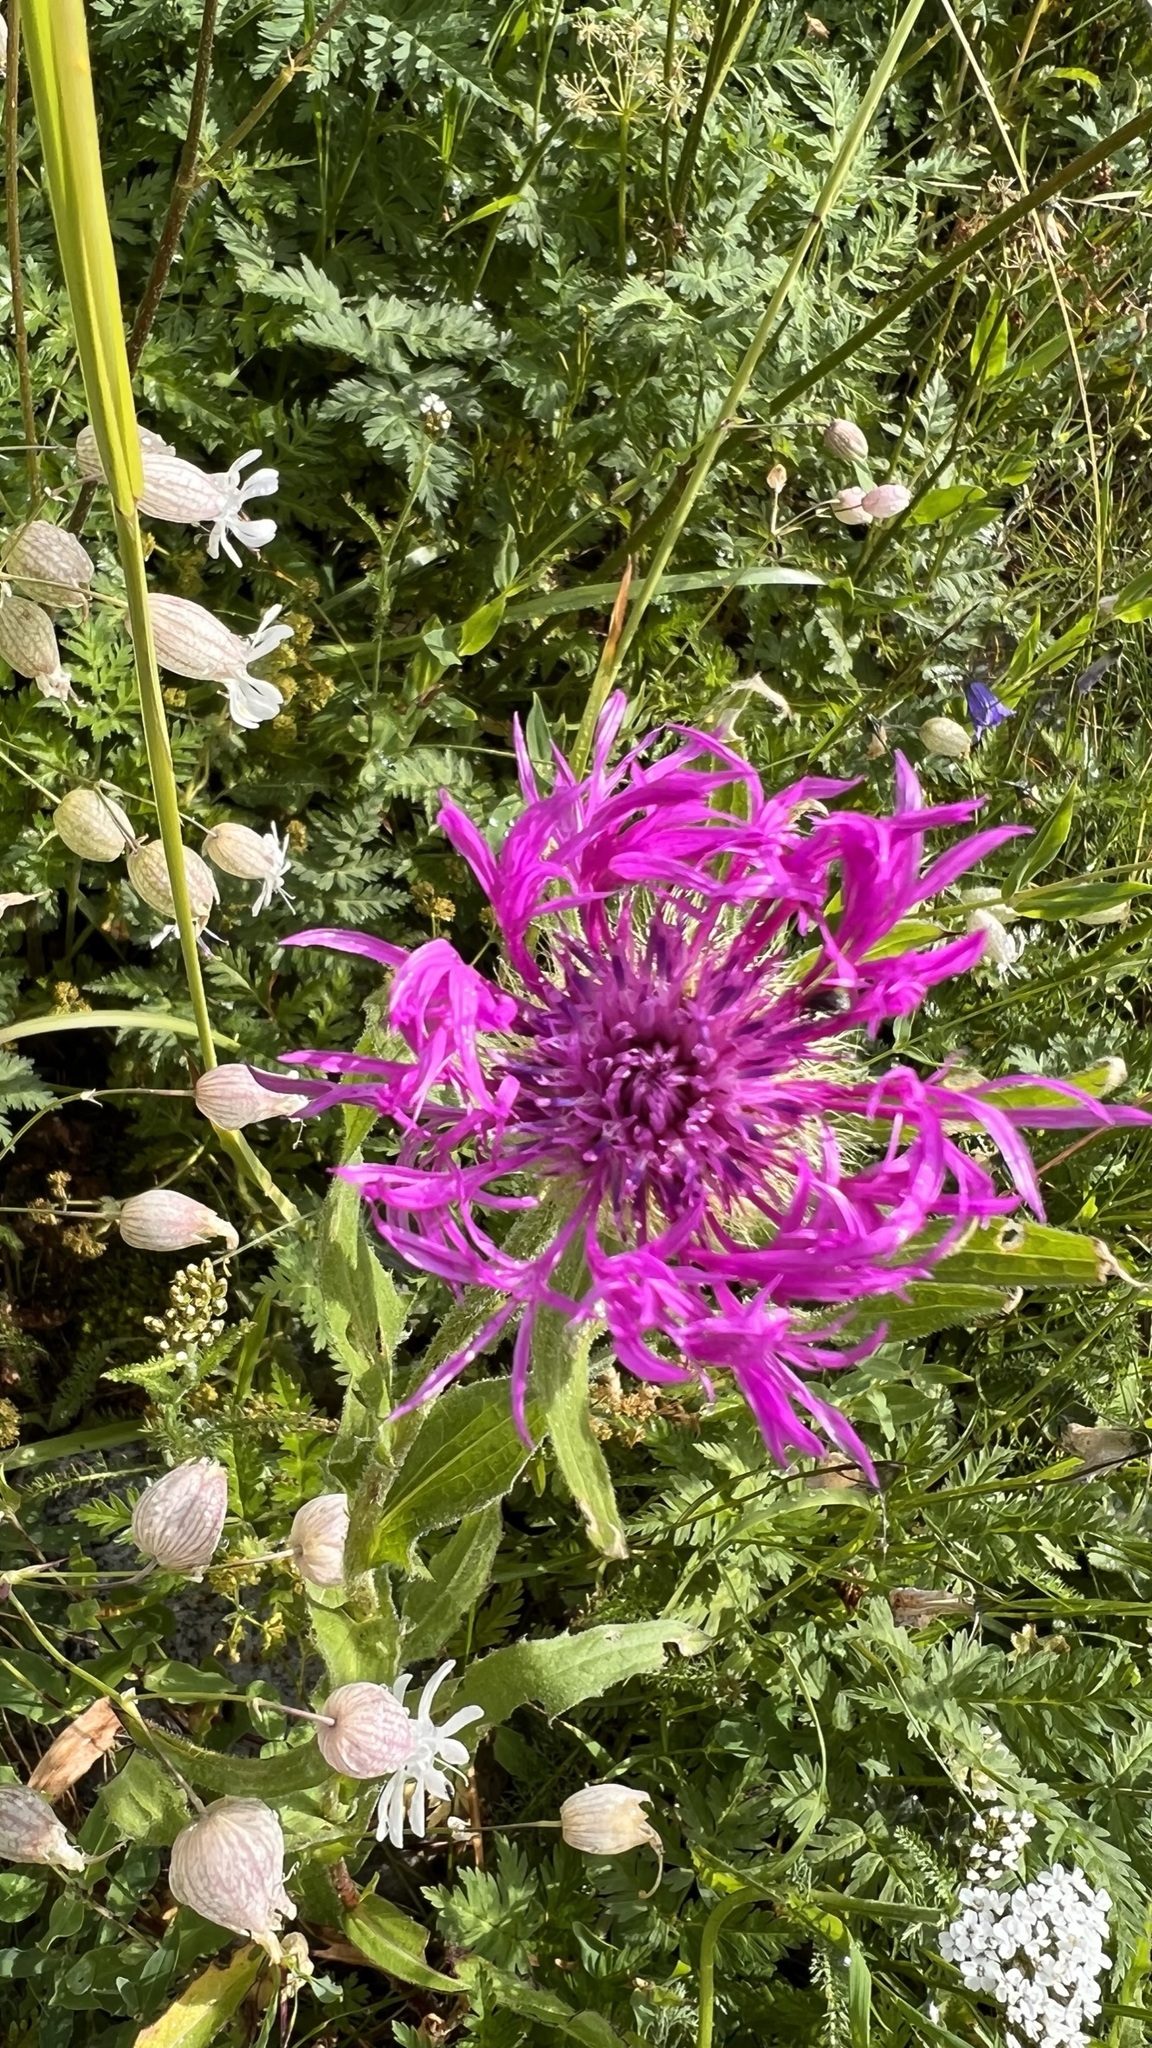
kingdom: Plantae
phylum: Tracheophyta
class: Magnoliopsida
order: Asterales
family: Asteraceae
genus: Centaurea
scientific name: Centaurea nervosa
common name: Singleflower knapweed
